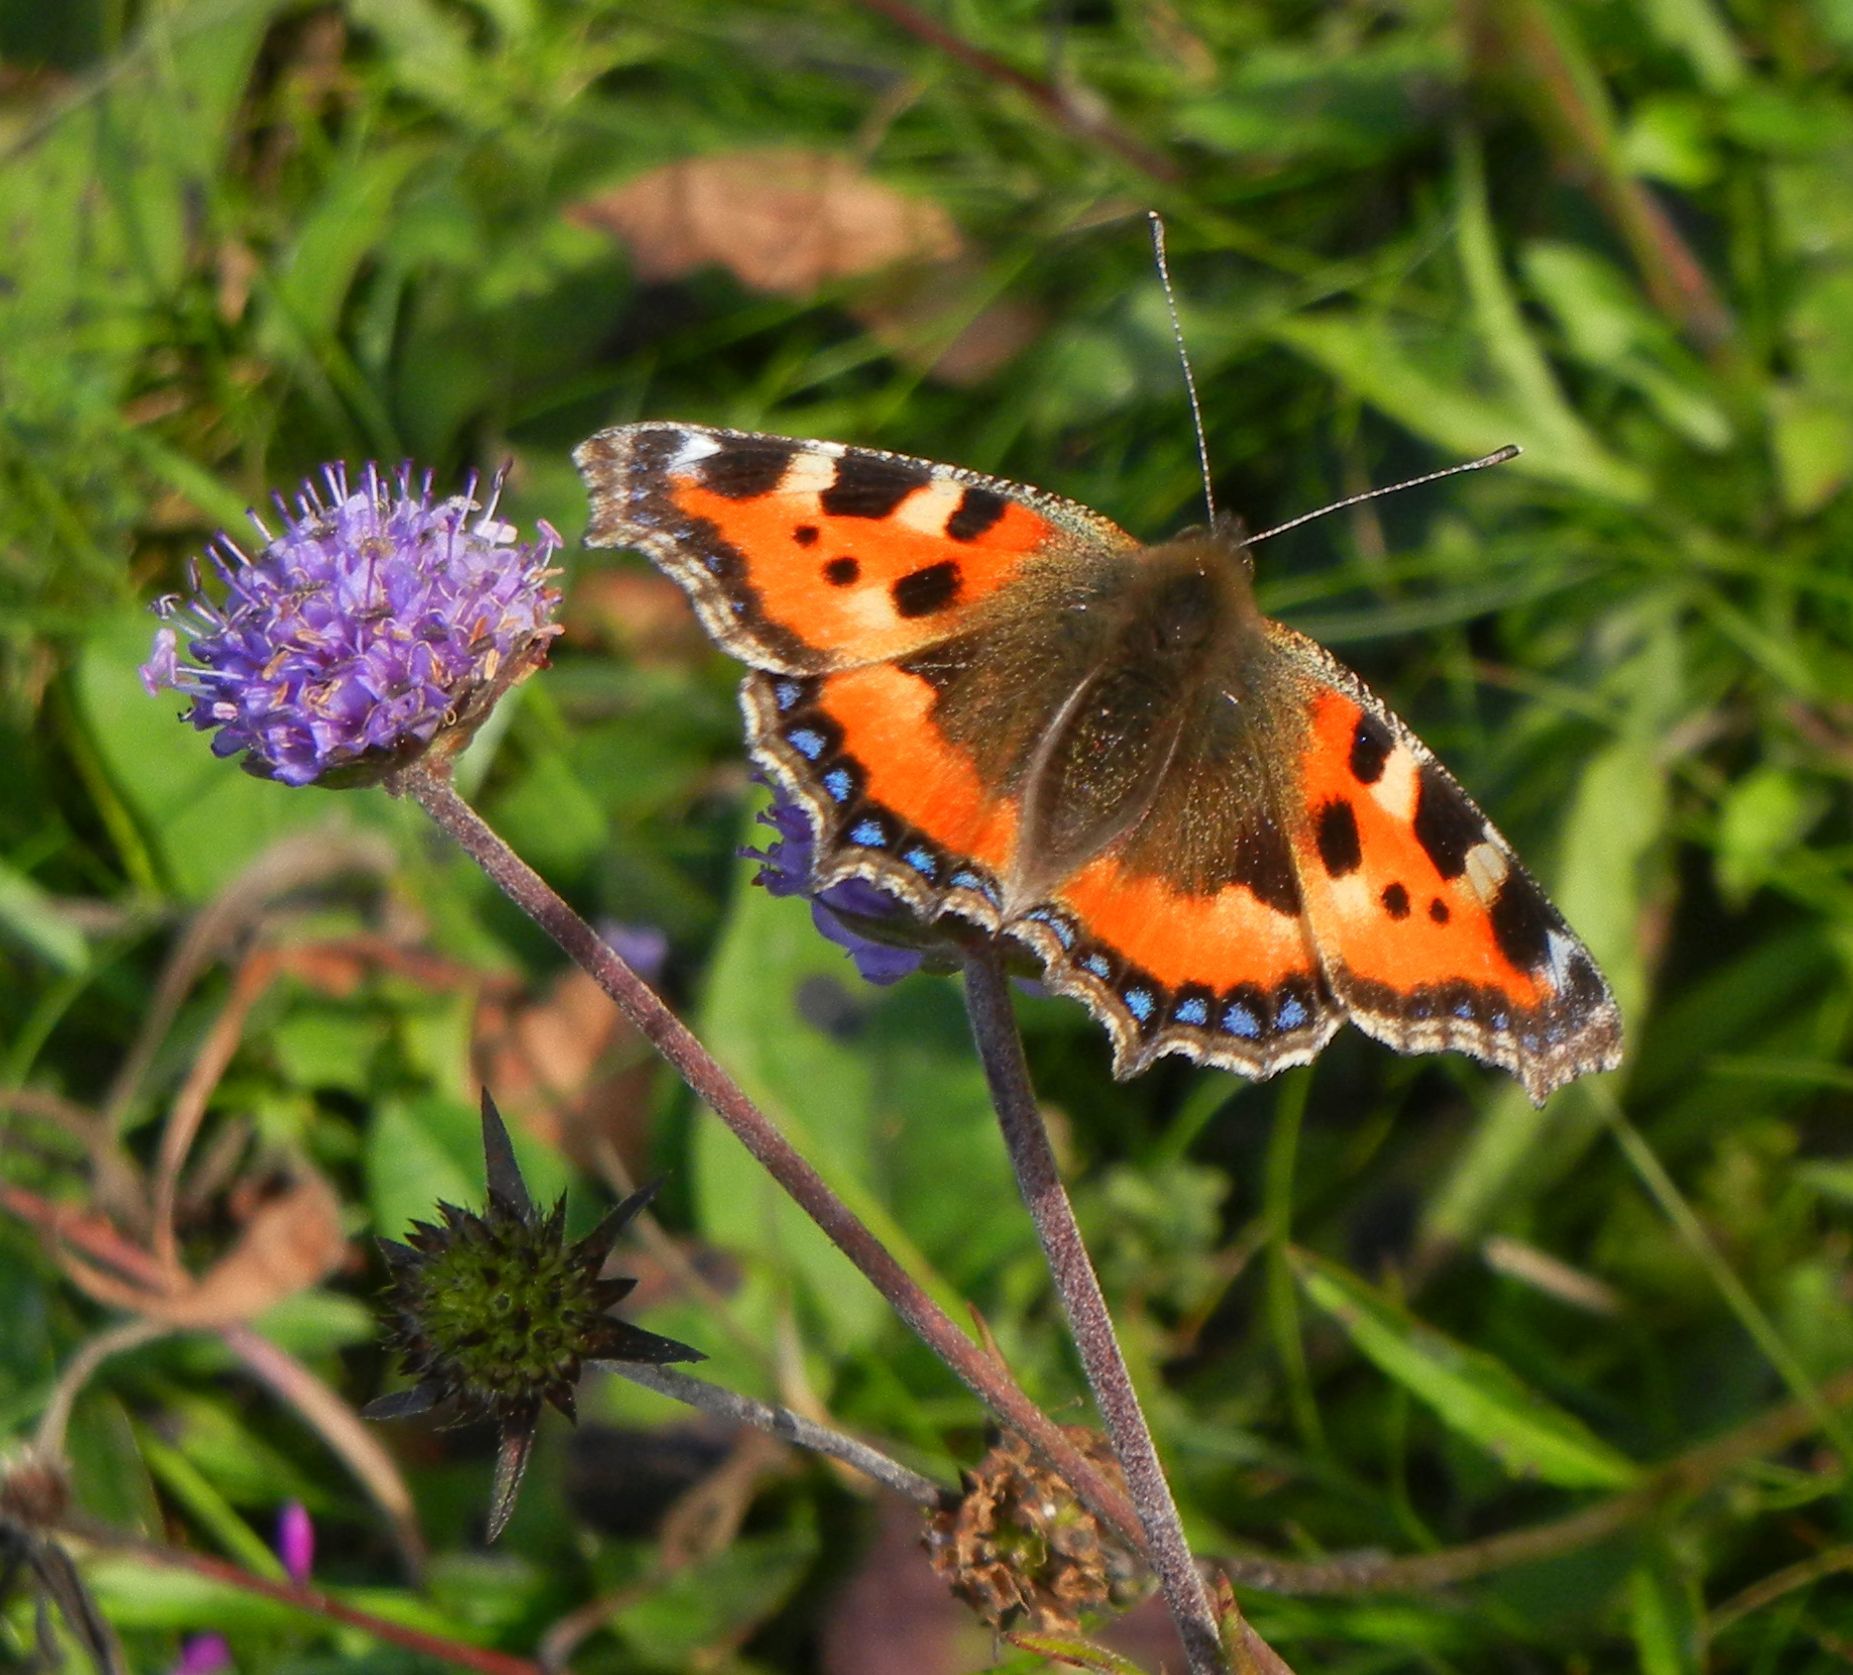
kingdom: Animalia
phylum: Arthropoda
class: Insecta
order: Lepidoptera
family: Nymphalidae
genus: Aglais
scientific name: Aglais urticae
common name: Small tortoiseshell
